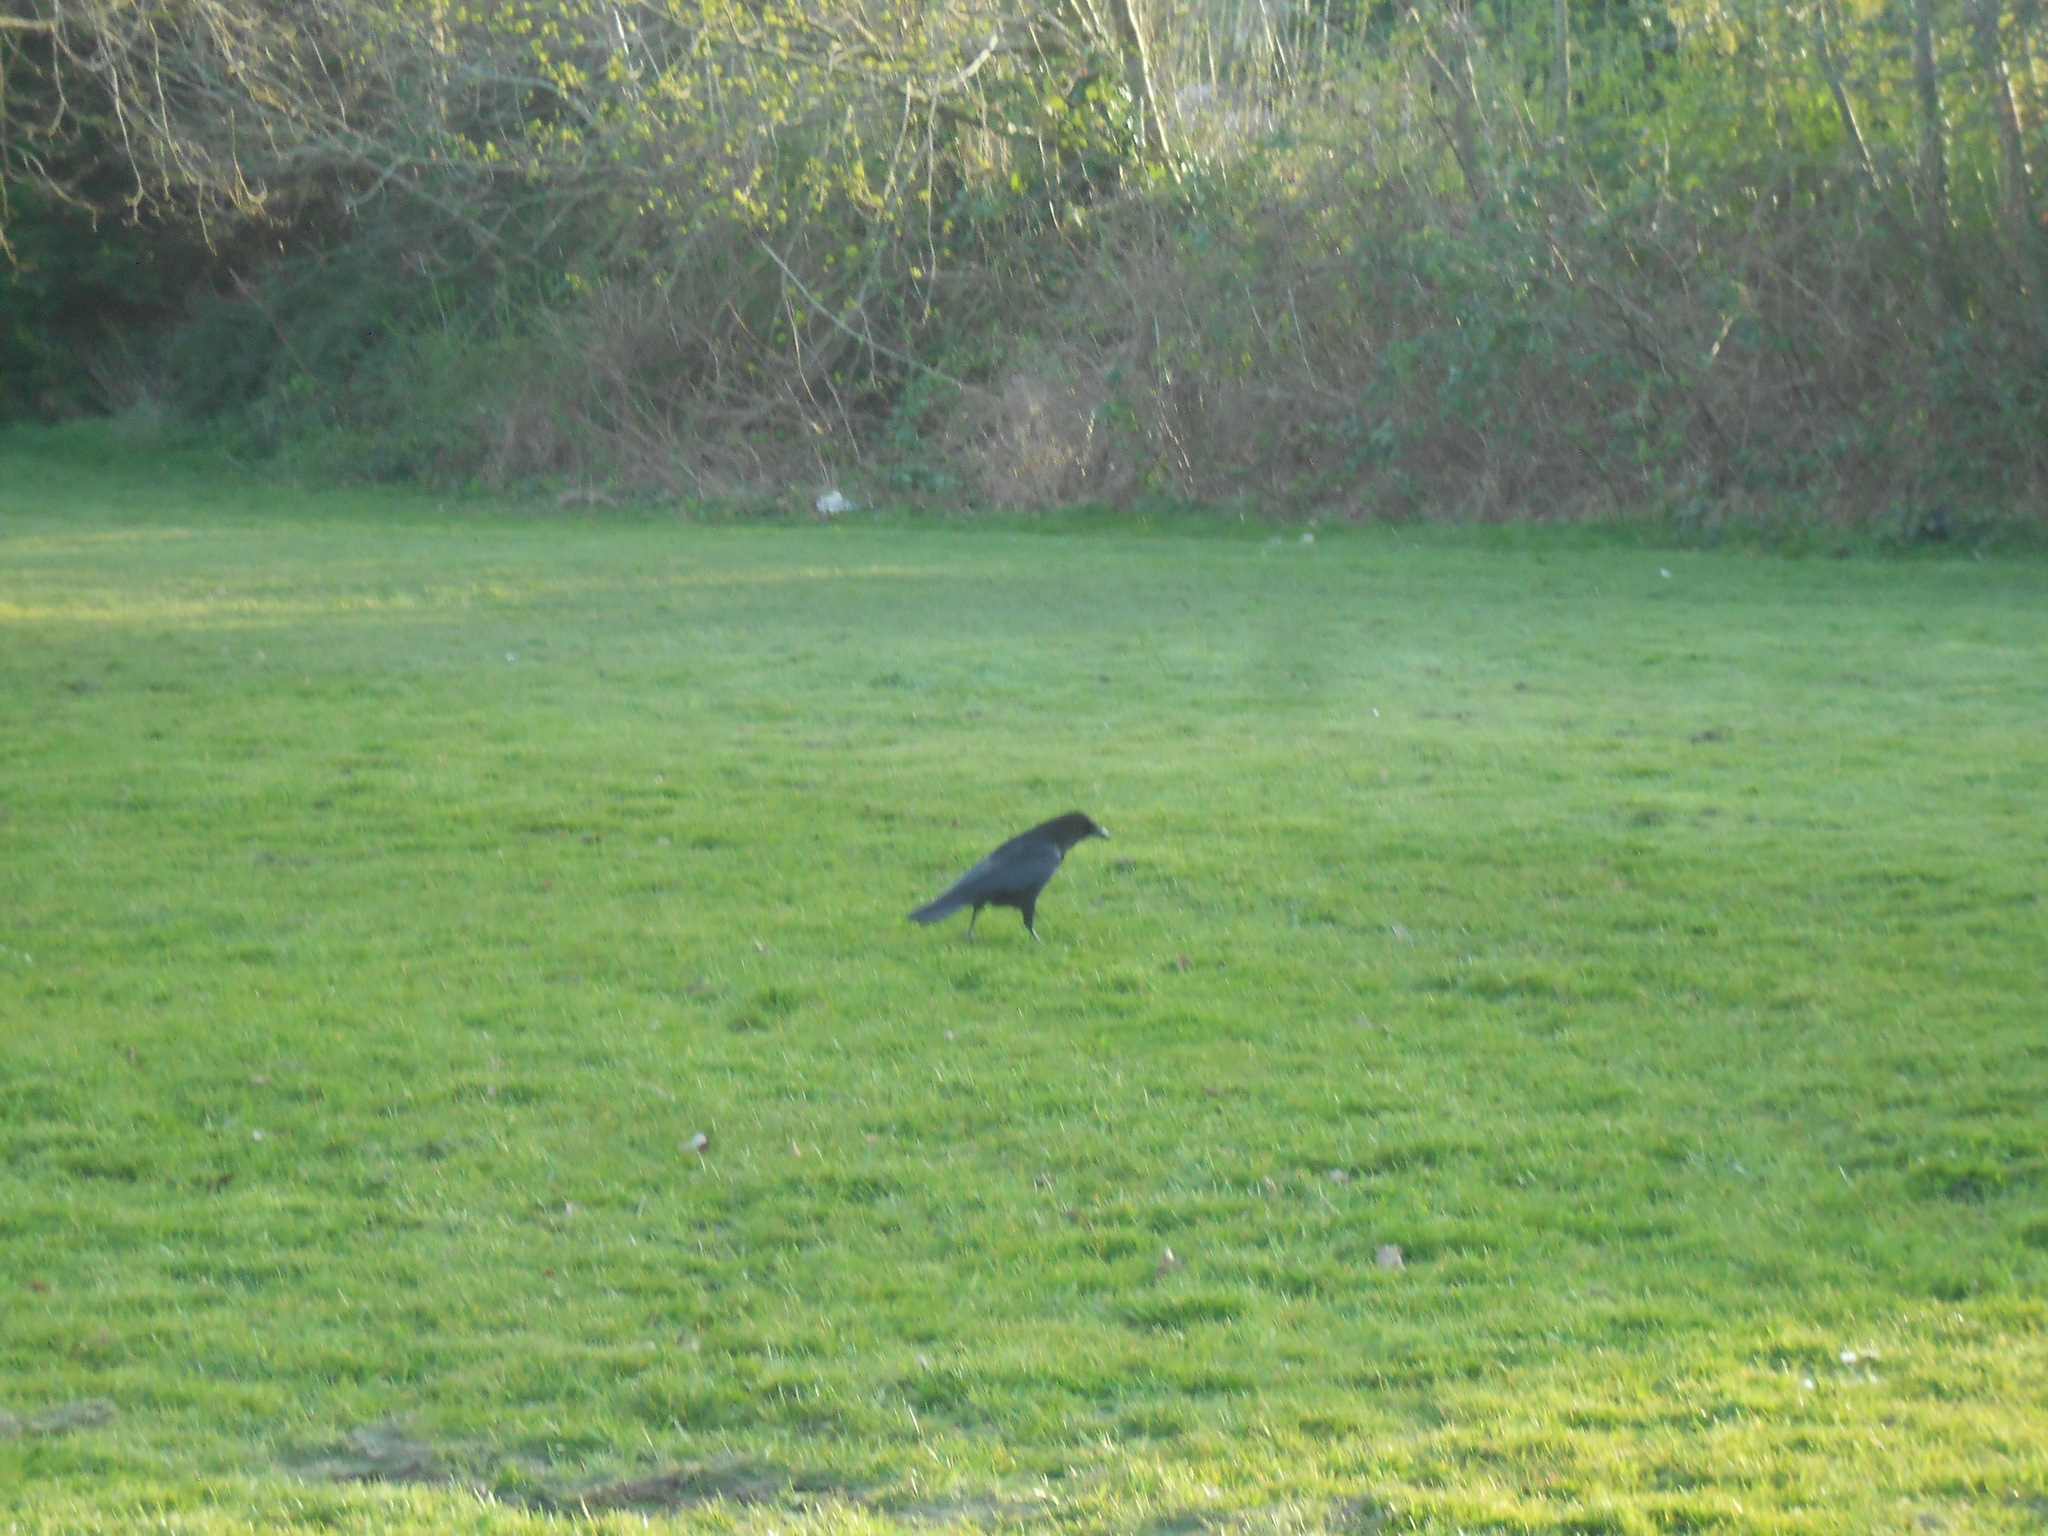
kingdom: Animalia
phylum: Chordata
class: Aves
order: Passeriformes
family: Corvidae
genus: Corvus
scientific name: Corvus corone
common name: Carrion crow
